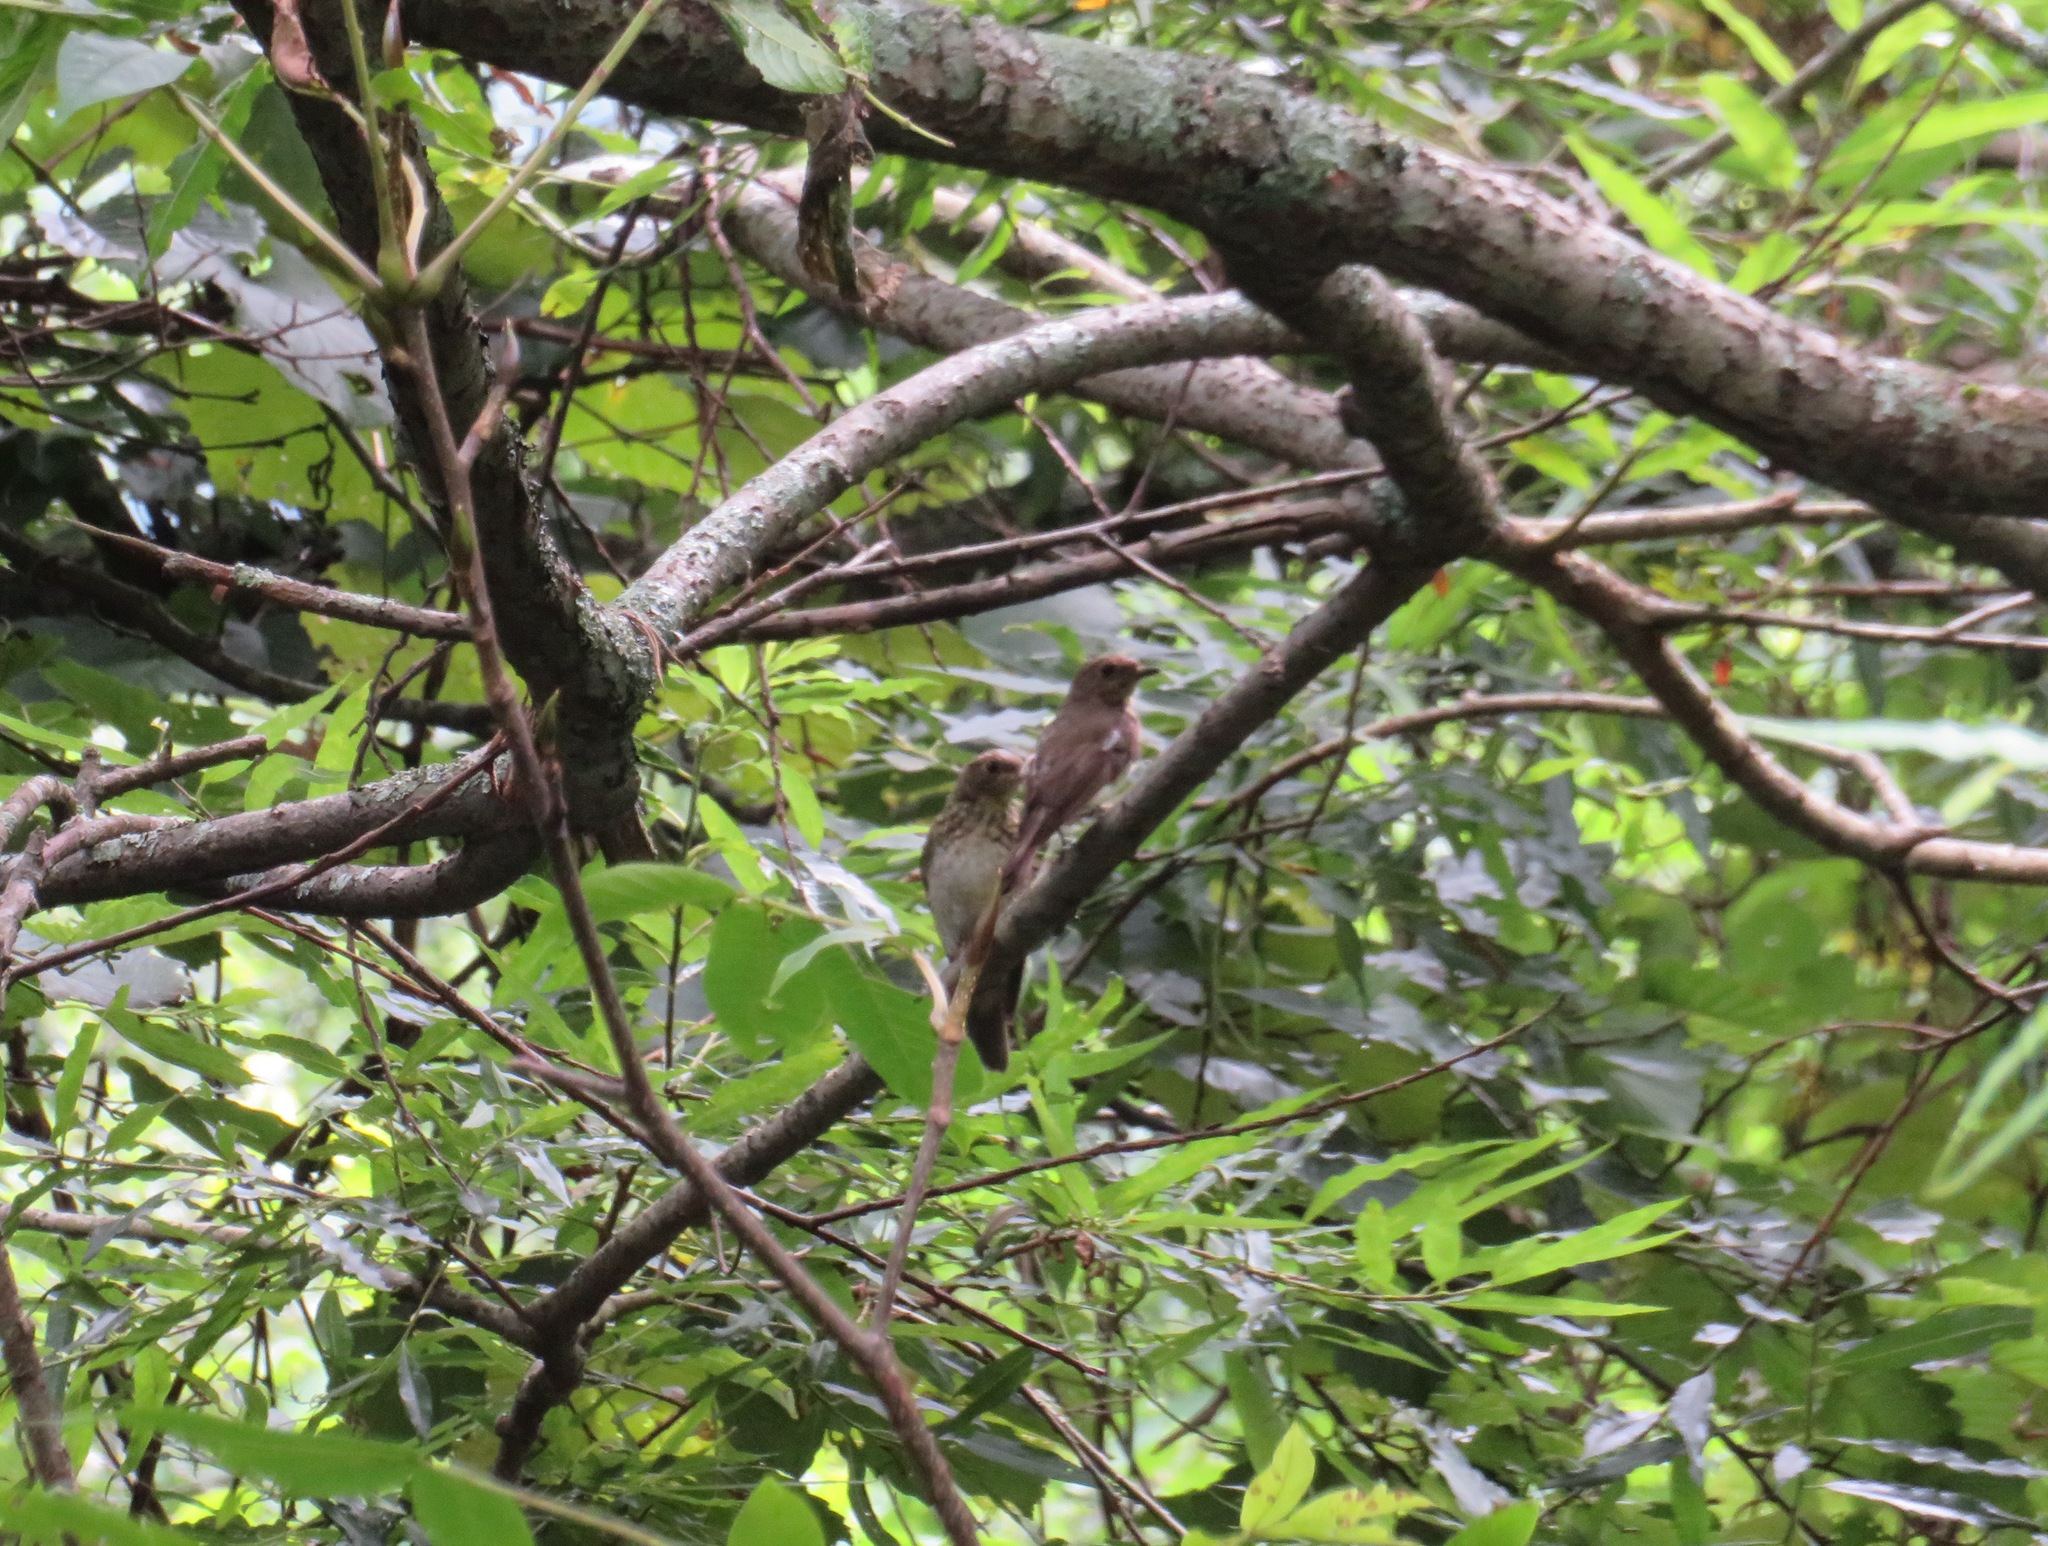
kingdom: Animalia
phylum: Chordata
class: Aves
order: Passeriformes
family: Muscicapidae
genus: Muscicapa
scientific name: Muscicapa griseisticta
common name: Gray-streaked flycatcher
